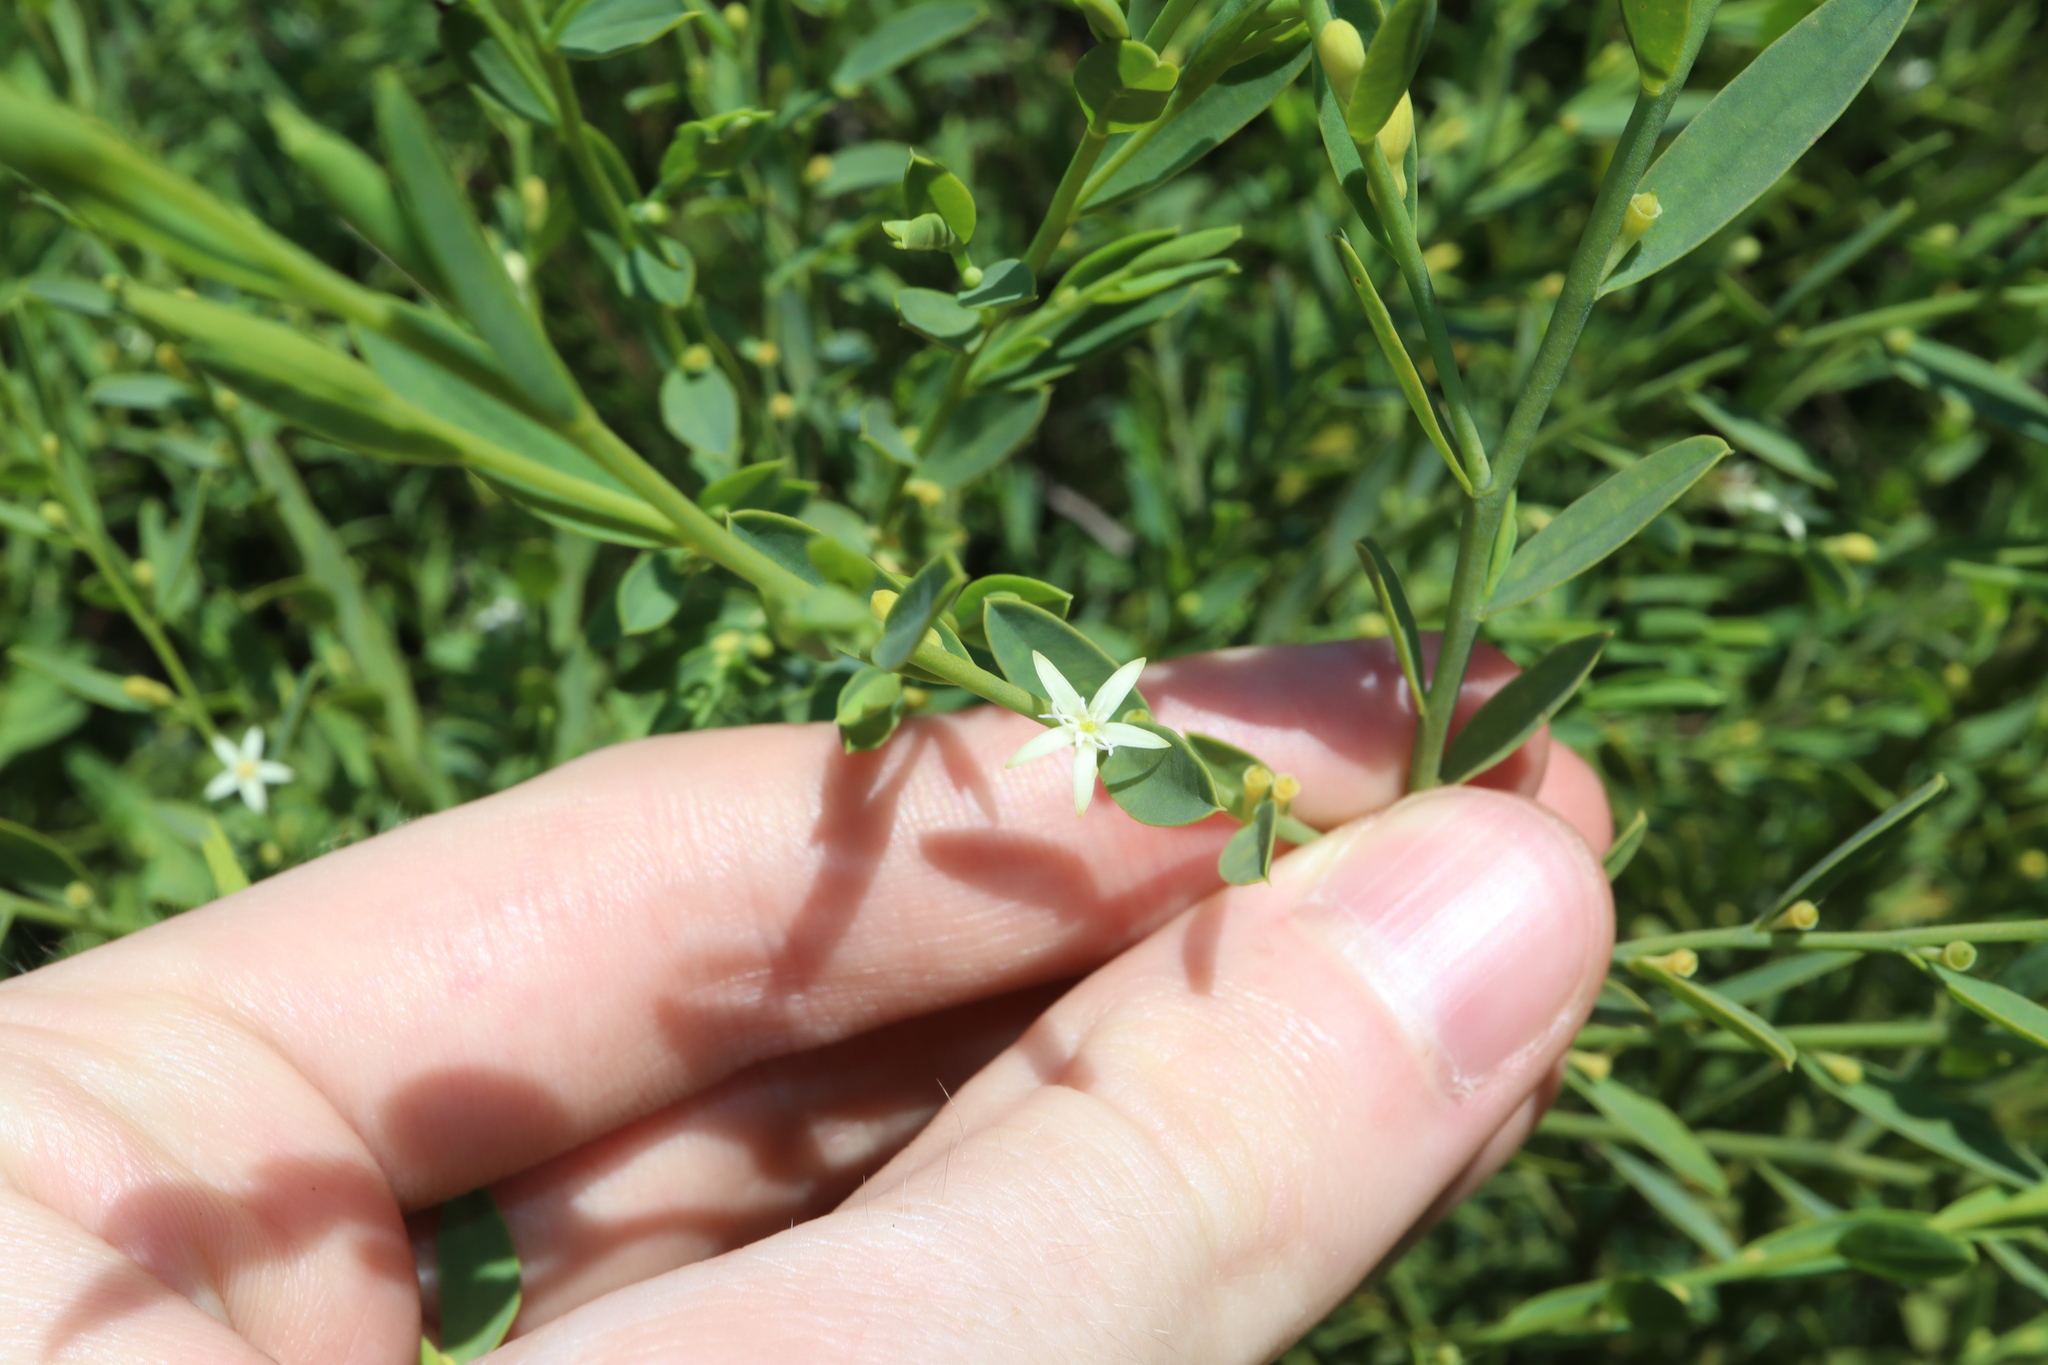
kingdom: Plantae
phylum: Tracheophyta
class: Magnoliopsida
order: Santalales
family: Olacaceae
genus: Olax
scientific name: Olax stricta
